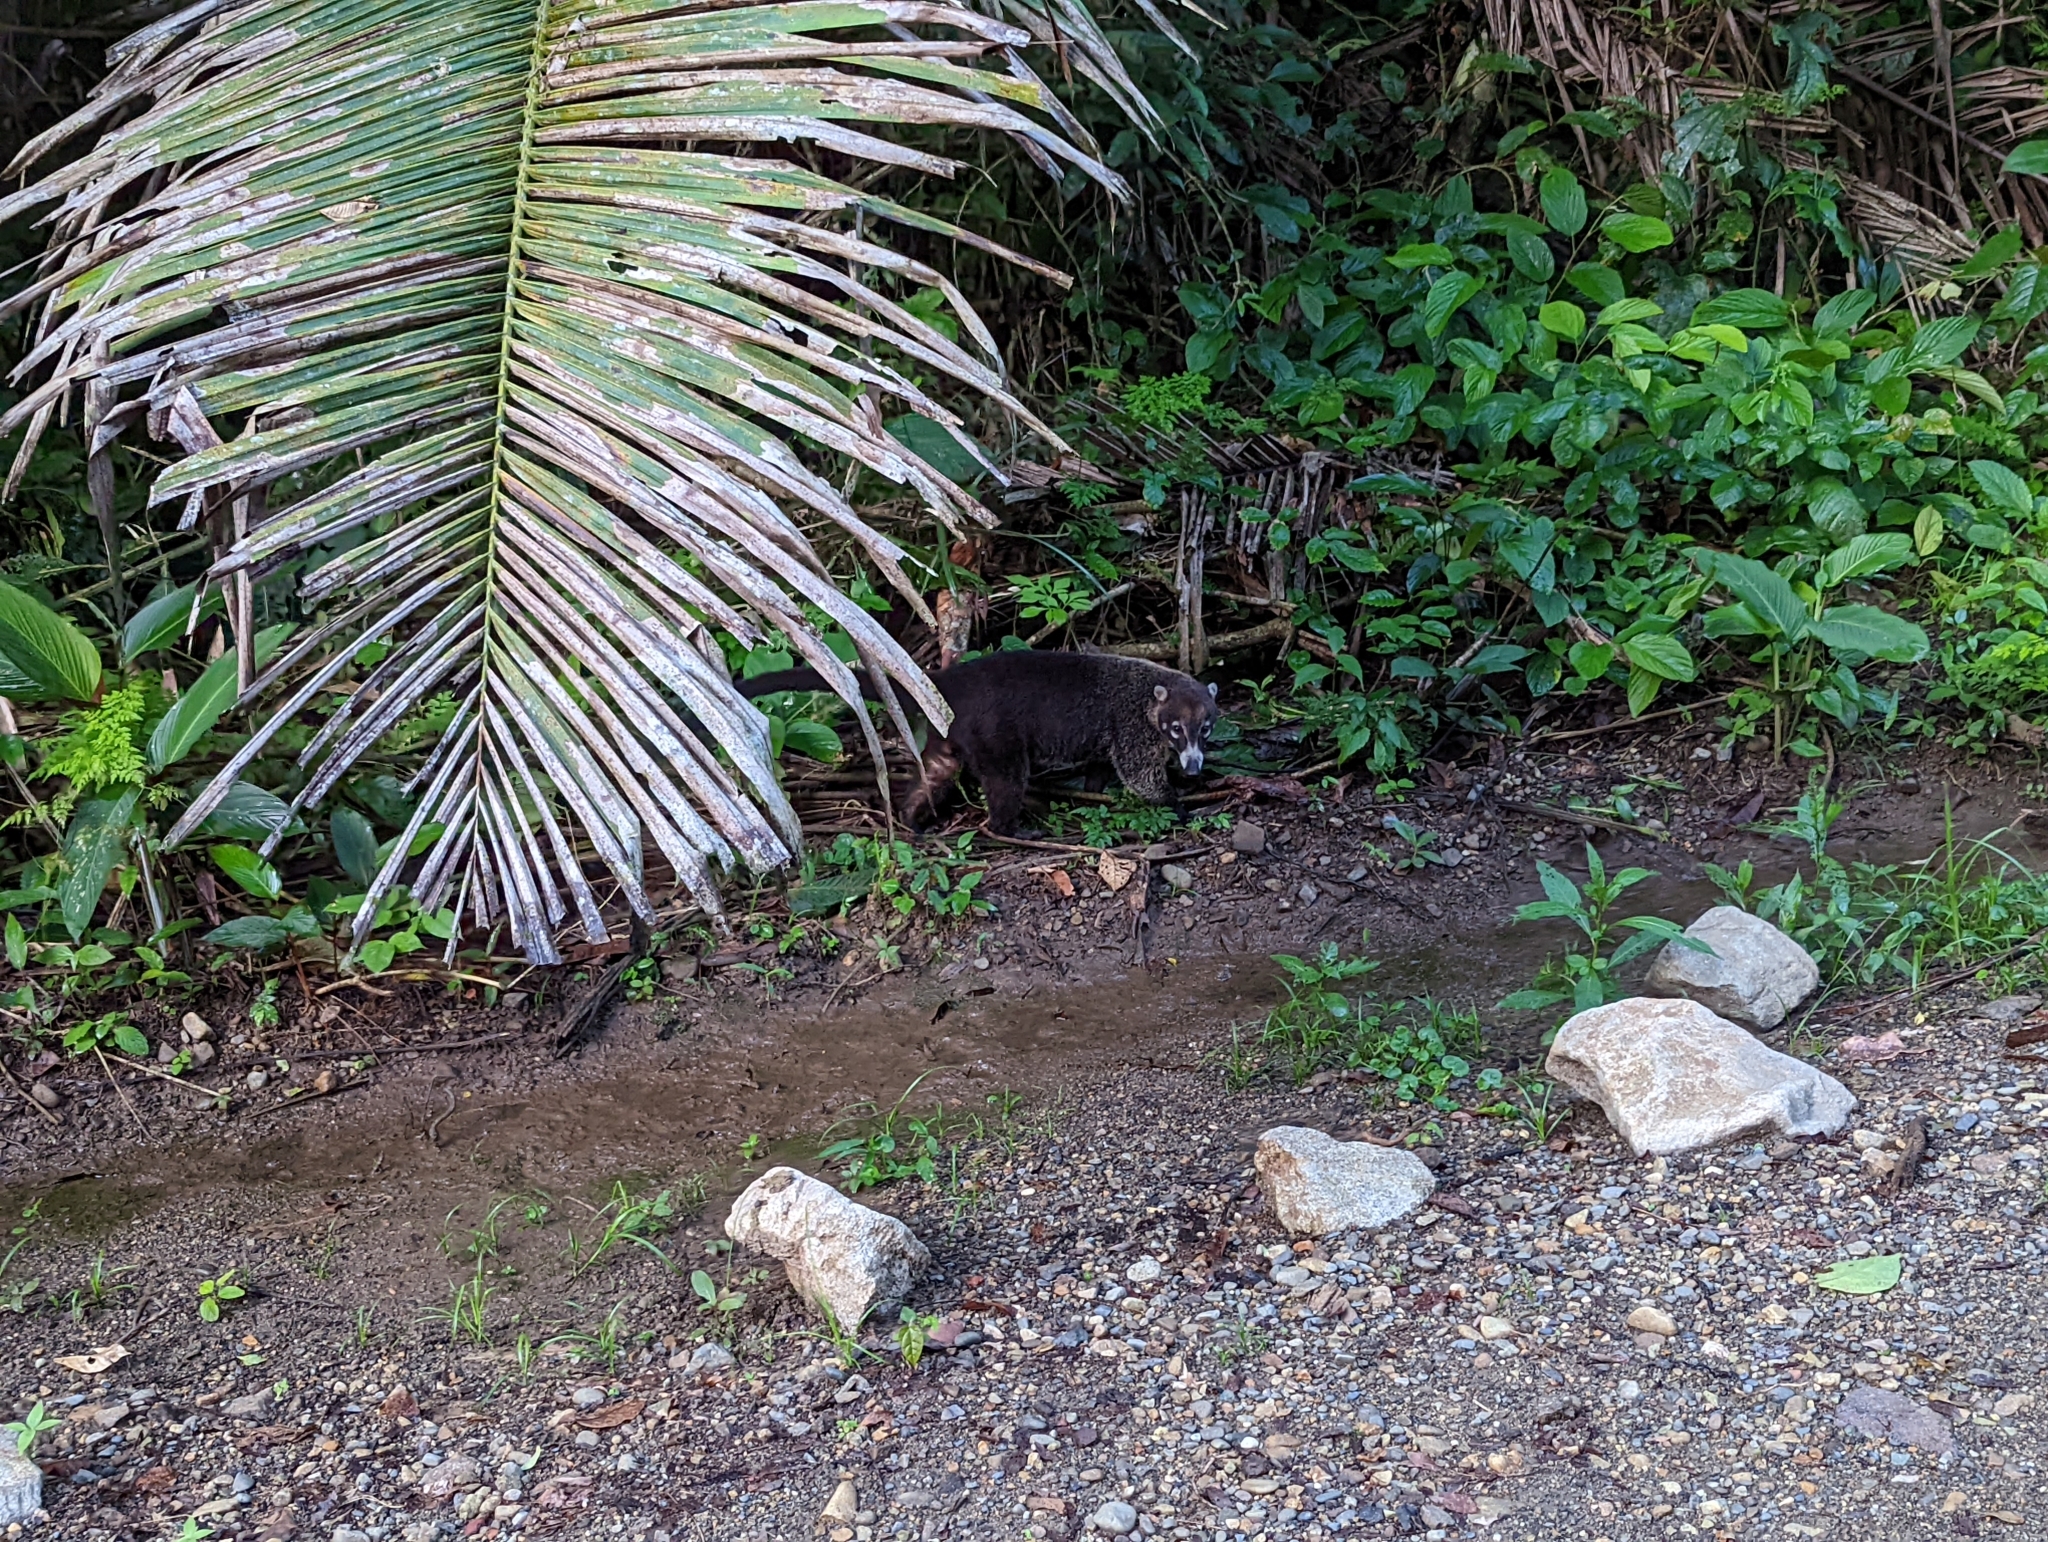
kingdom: Animalia
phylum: Chordata
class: Mammalia
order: Carnivora
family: Procyonidae
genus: Nasua
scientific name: Nasua narica
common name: White-nosed coati
